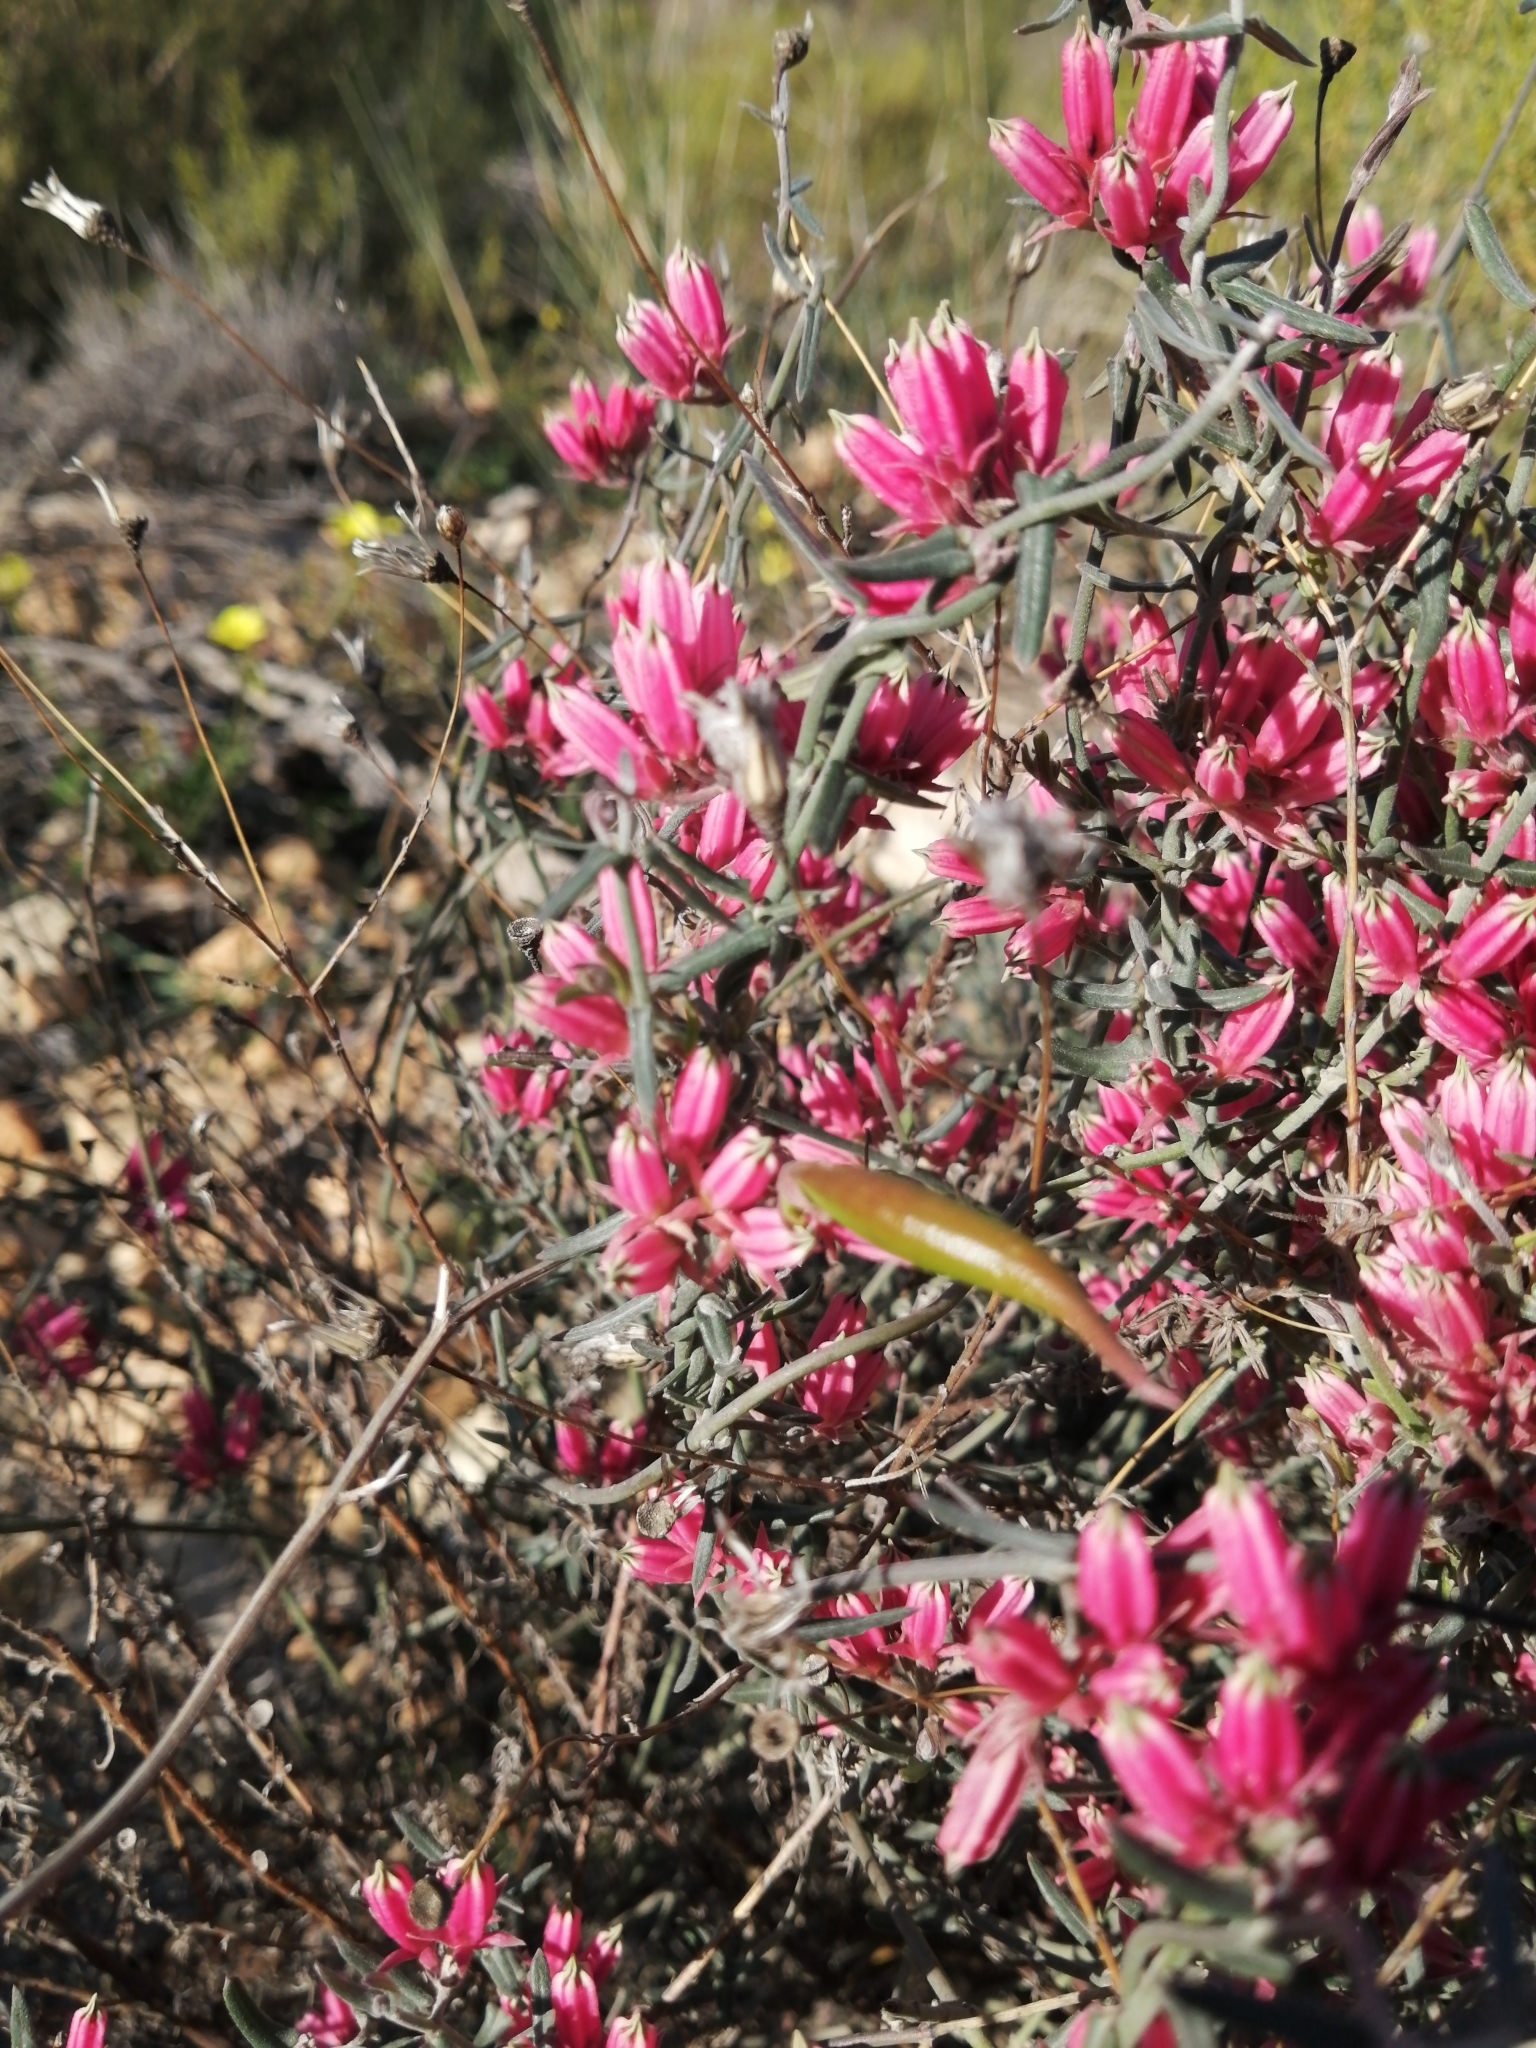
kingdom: Plantae
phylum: Tracheophyta
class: Magnoliopsida
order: Gentianales
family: Apocynaceae
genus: Microloma
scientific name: Microloma sagittatum
